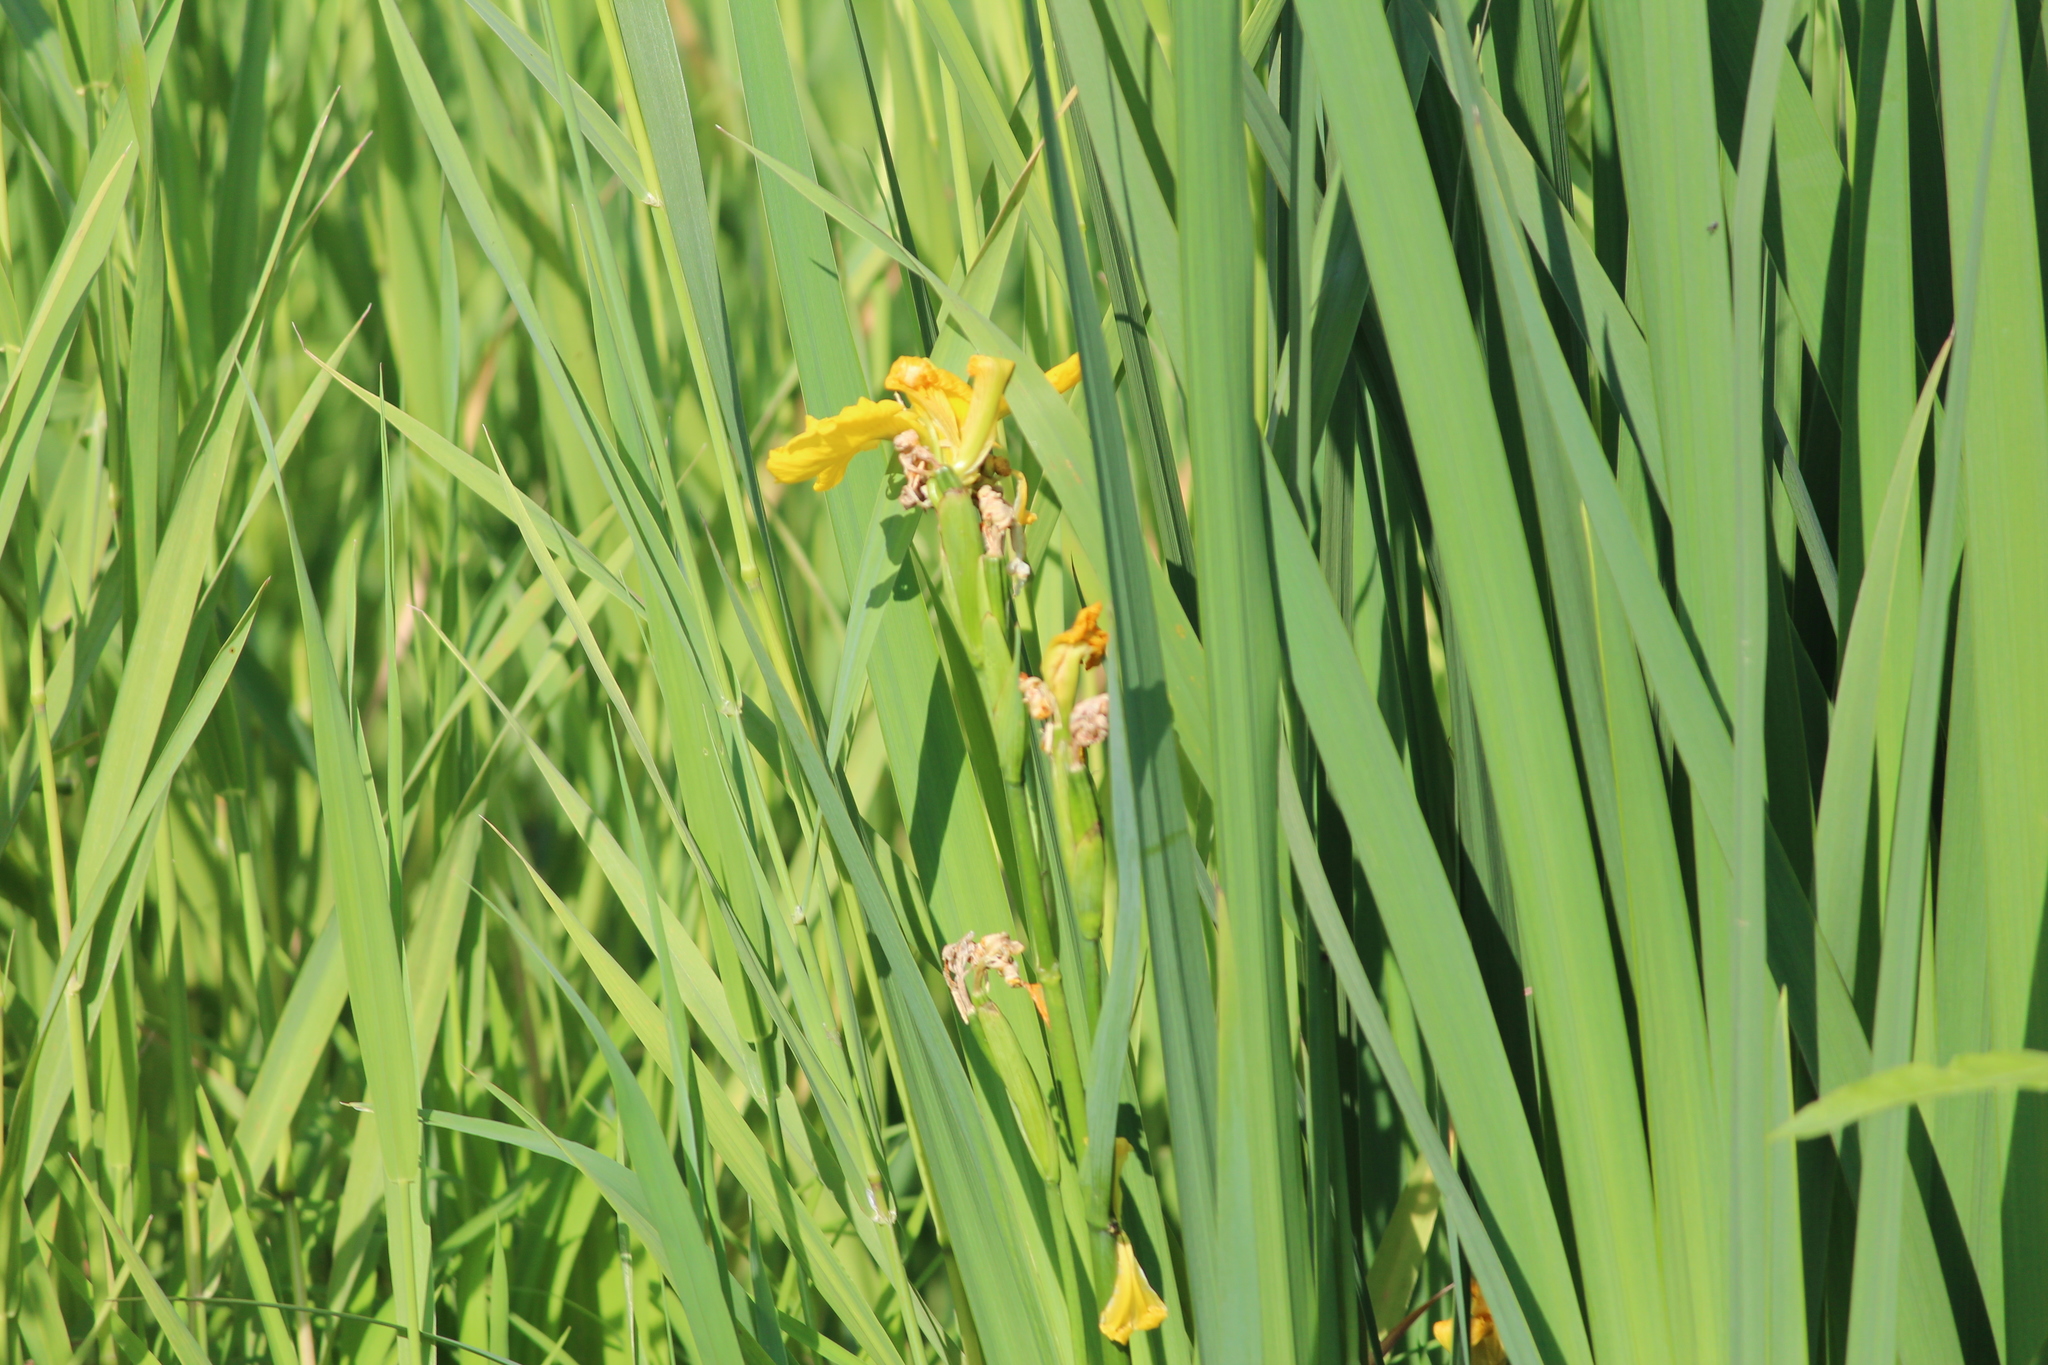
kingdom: Plantae
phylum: Tracheophyta
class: Liliopsida
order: Asparagales
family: Iridaceae
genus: Iris
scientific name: Iris pseudacorus
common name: Yellow flag
